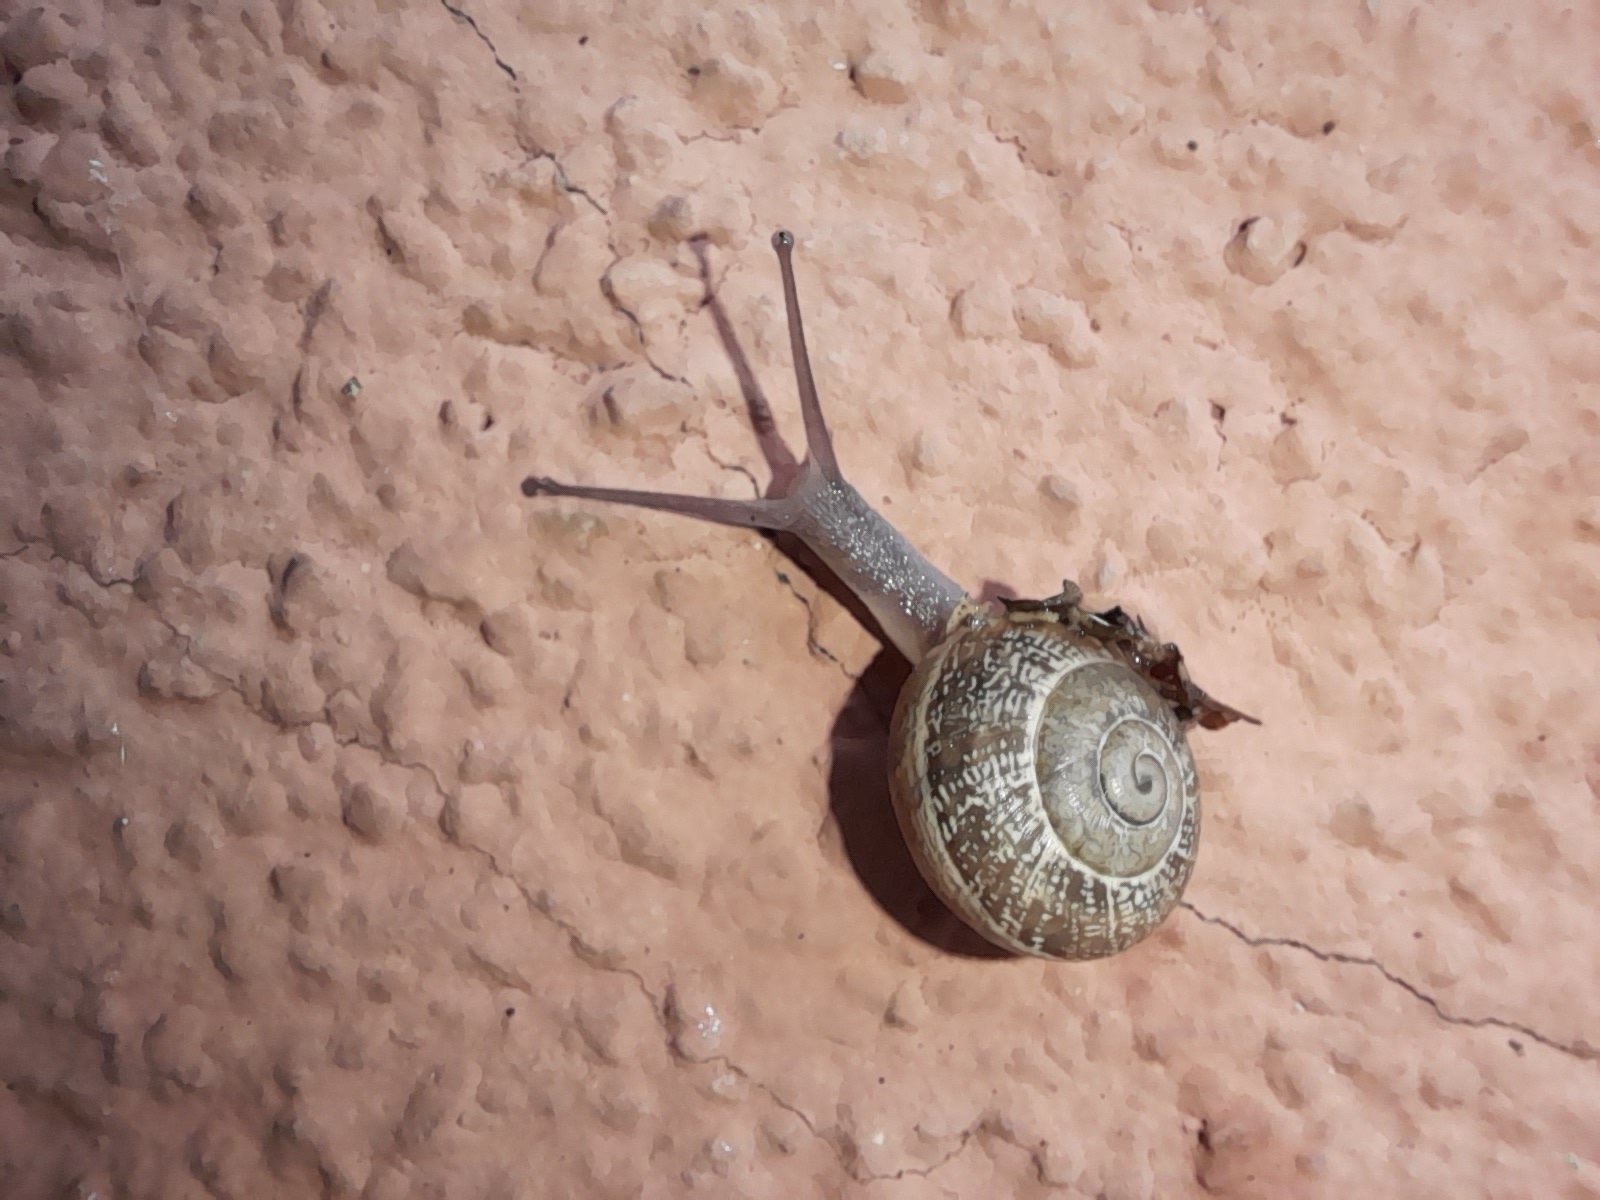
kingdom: Animalia
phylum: Mollusca
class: Gastropoda
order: Stylommatophora
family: Helicidae
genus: Eobania
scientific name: Eobania vermiculata
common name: Chocolateband snail
